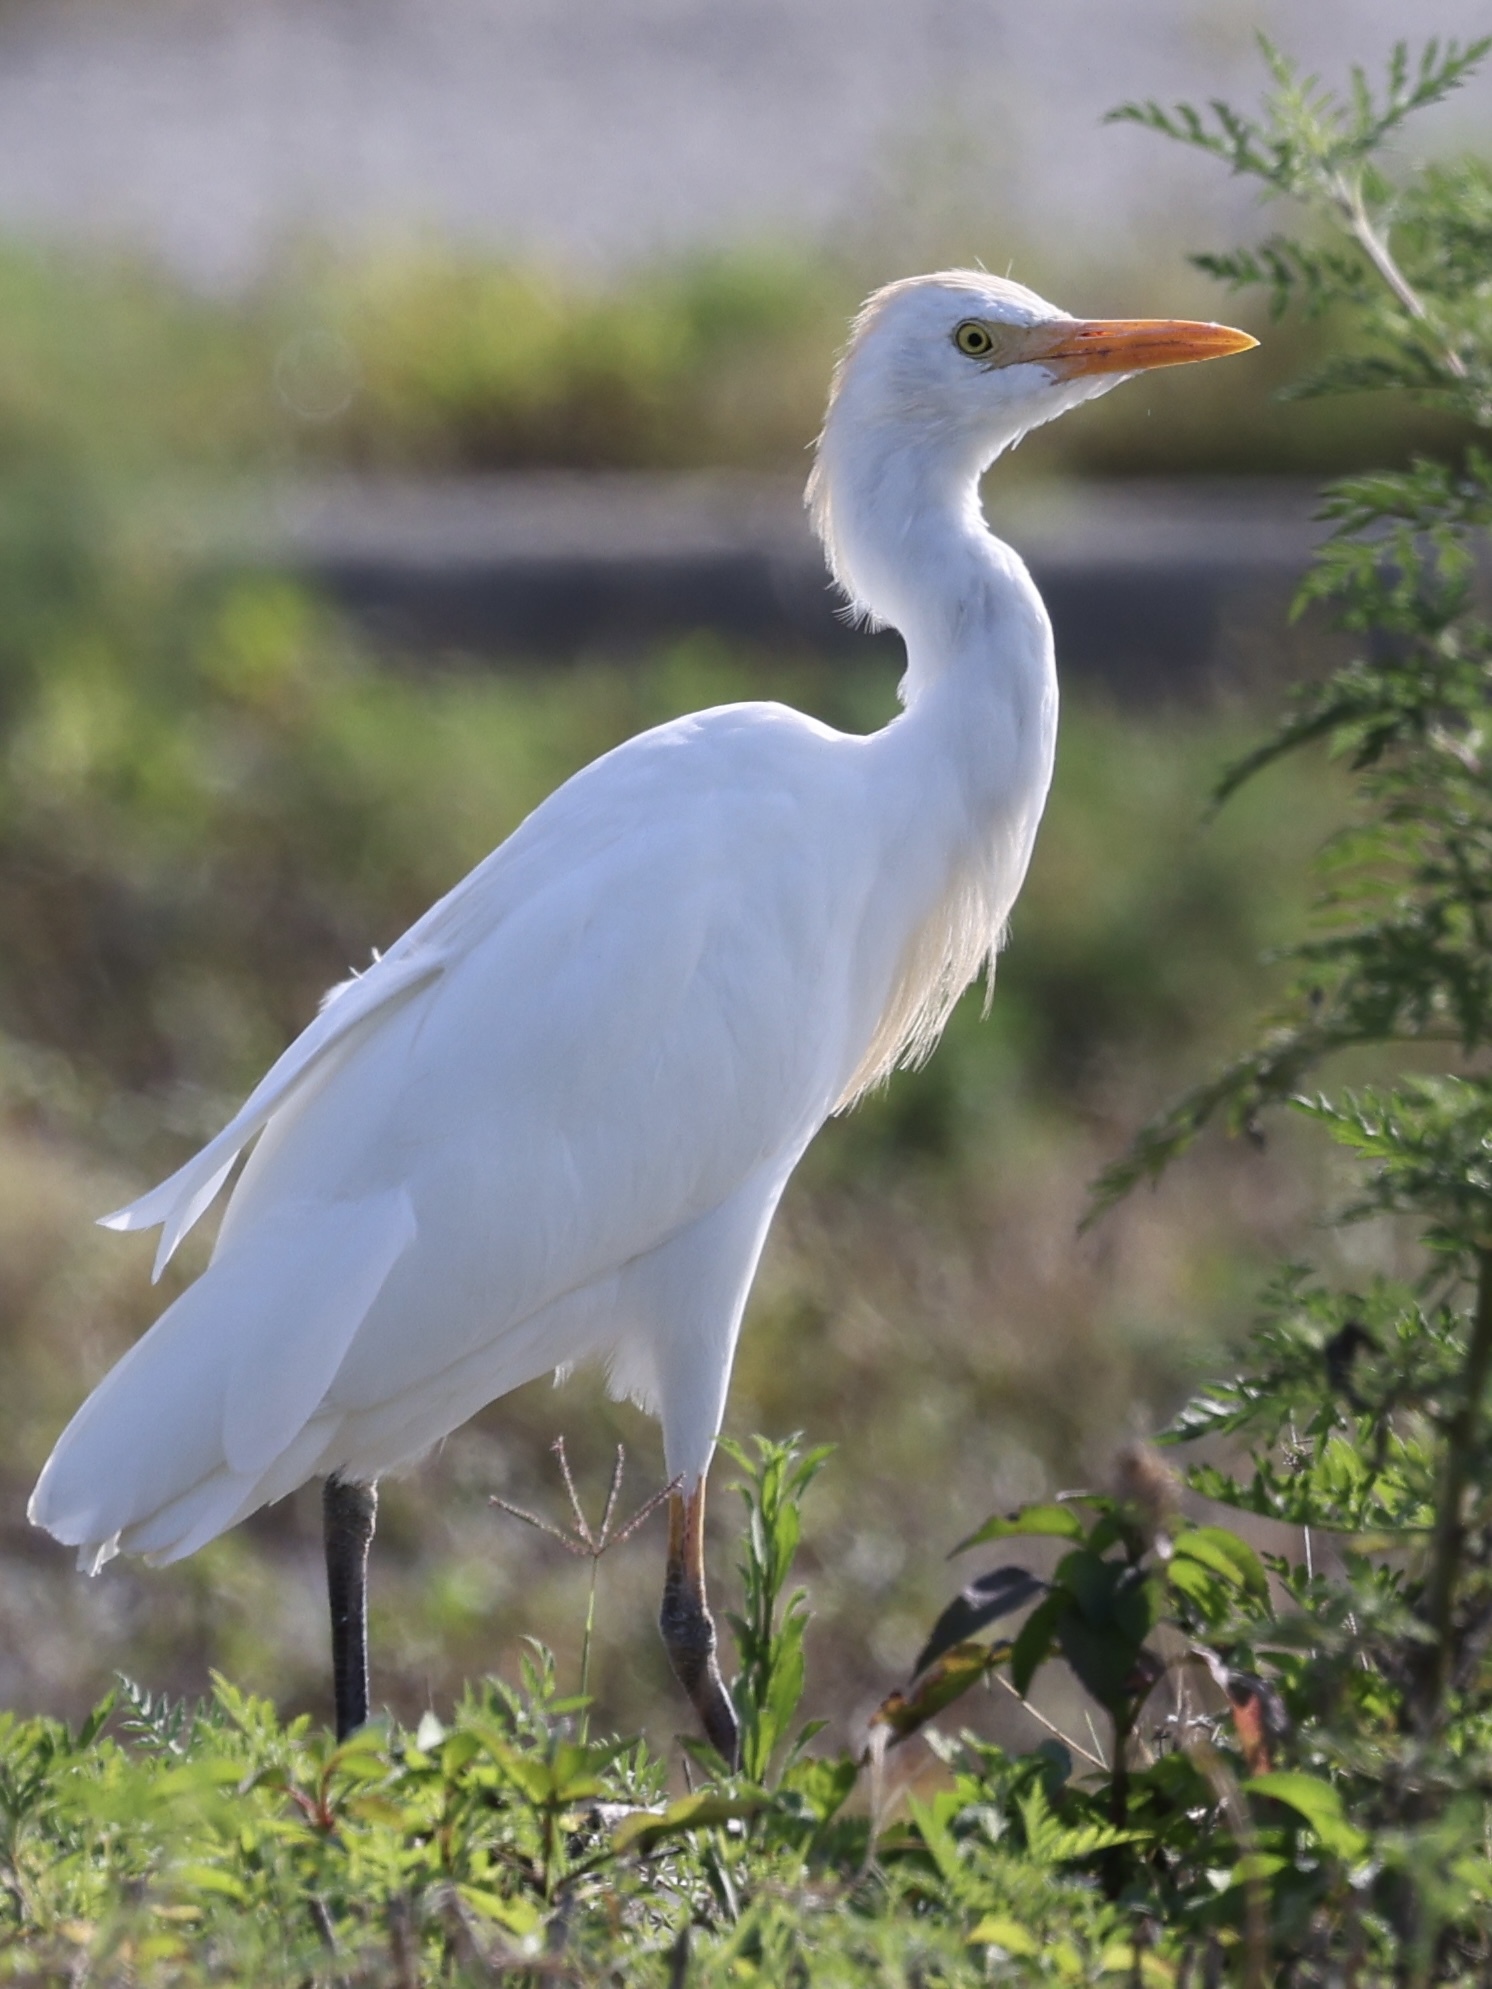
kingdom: Animalia
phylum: Chordata
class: Aves
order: Pelecaniformes
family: Ardeidae
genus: Bubulcus
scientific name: Bubulcus ibis
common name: Cattle egret
